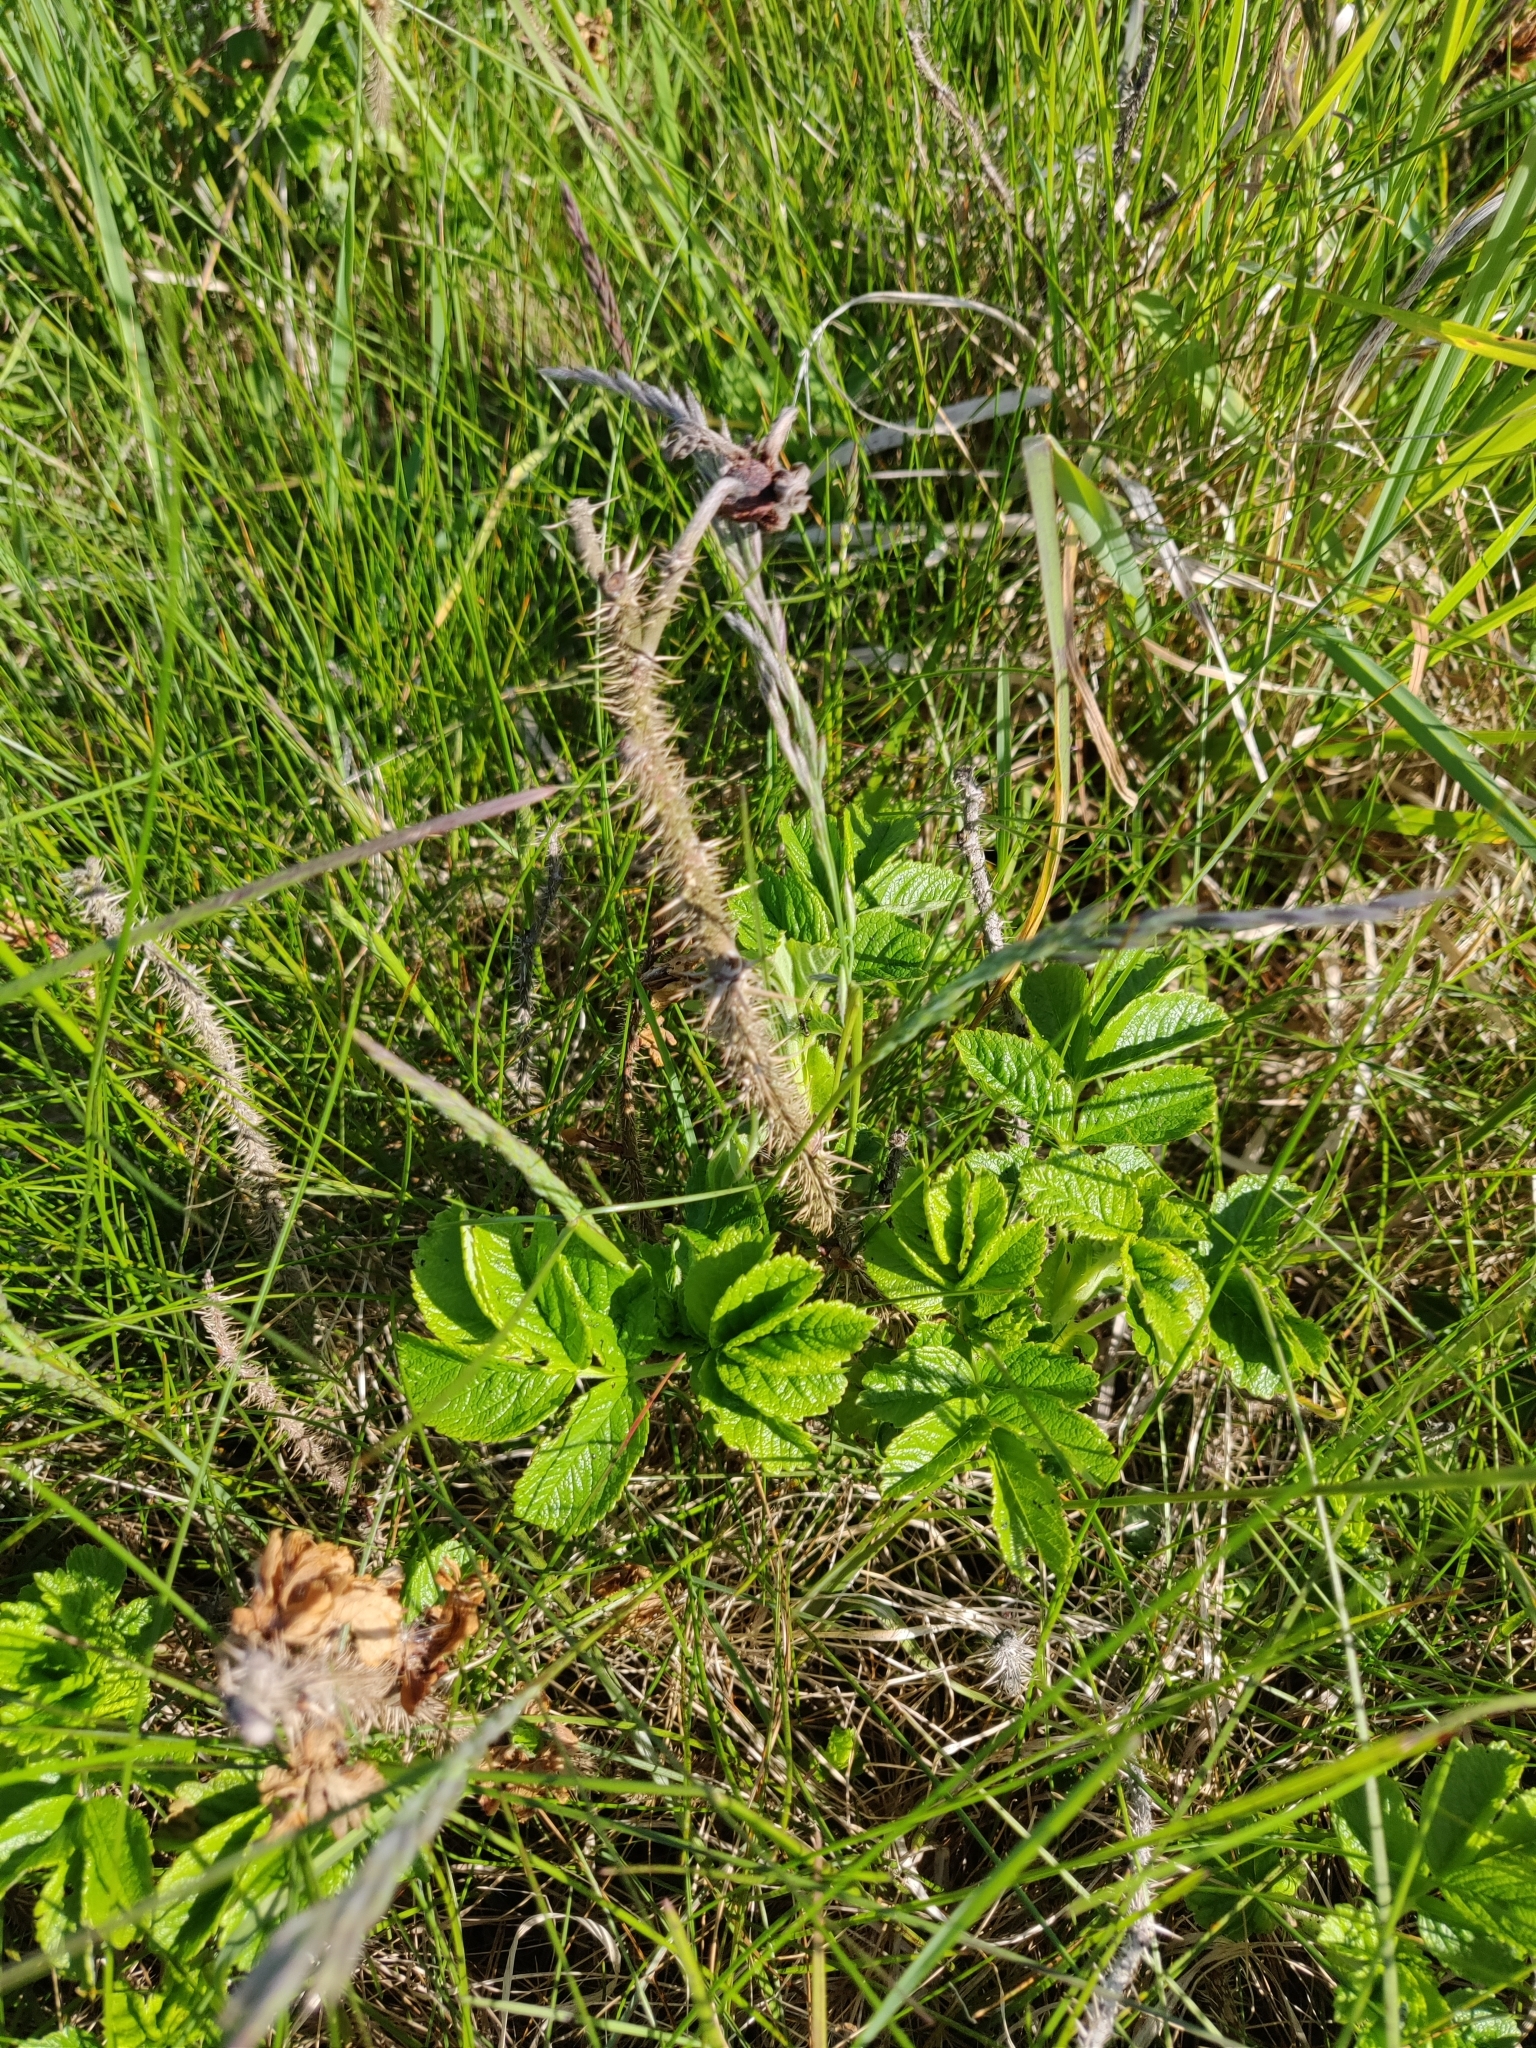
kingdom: Plantae
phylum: Tracheophyta
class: Magnoliopsida
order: Rosales
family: Rosaceae
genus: Rosa
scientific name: Rosa rugosa
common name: Japanese rose
